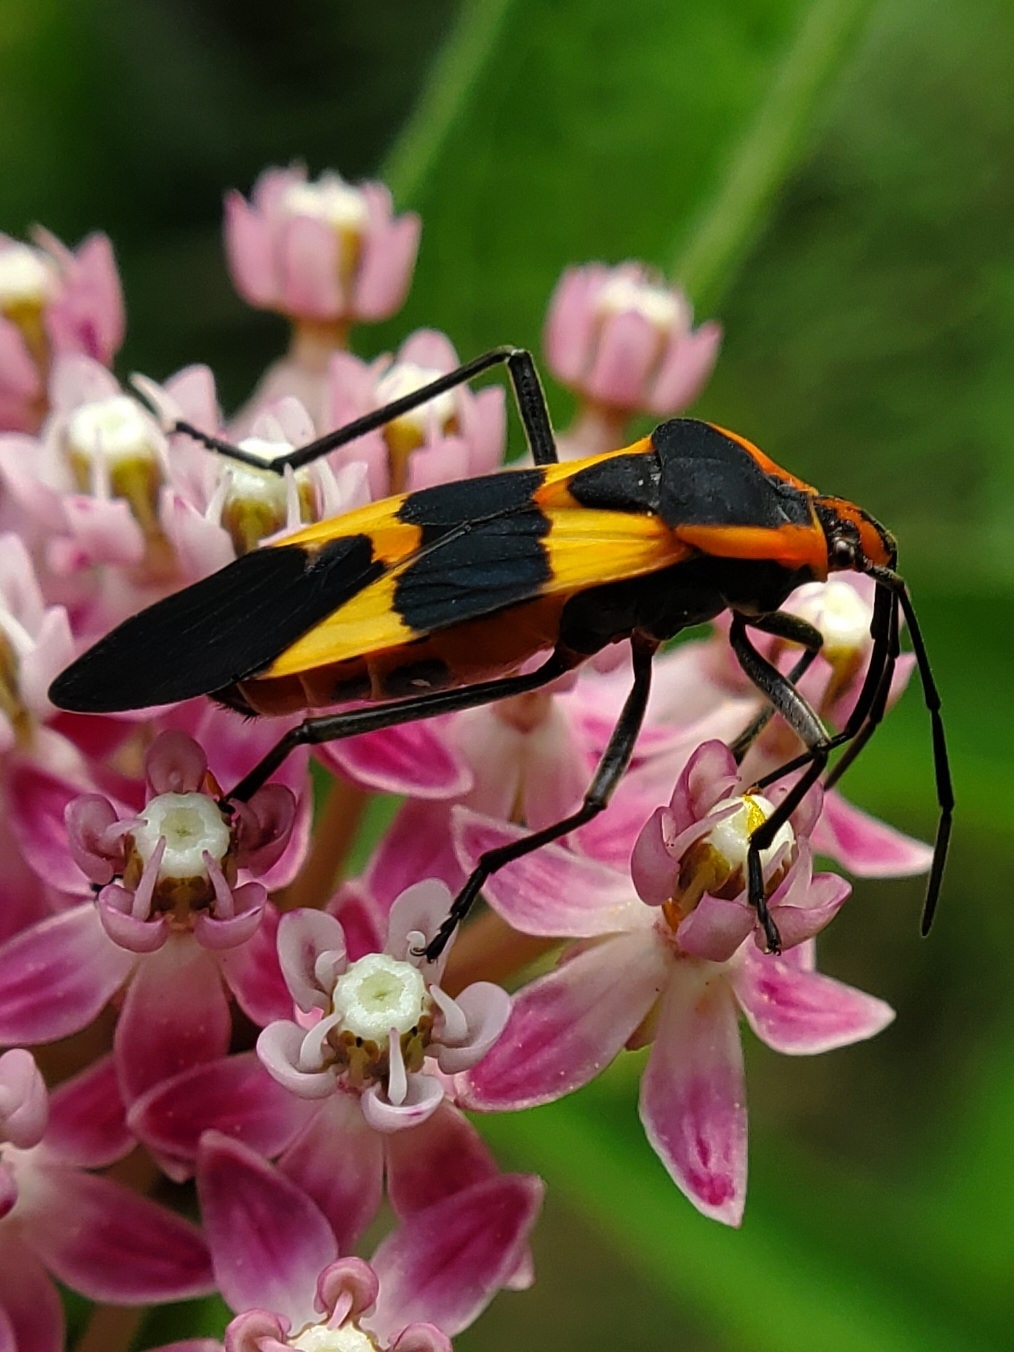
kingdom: Animalia
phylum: Arthropoda
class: Insecta
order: Hemiptera
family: Lygaeidae
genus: Oncopeltus
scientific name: Oncopeltus fasciatus
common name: Large milkweed bug
